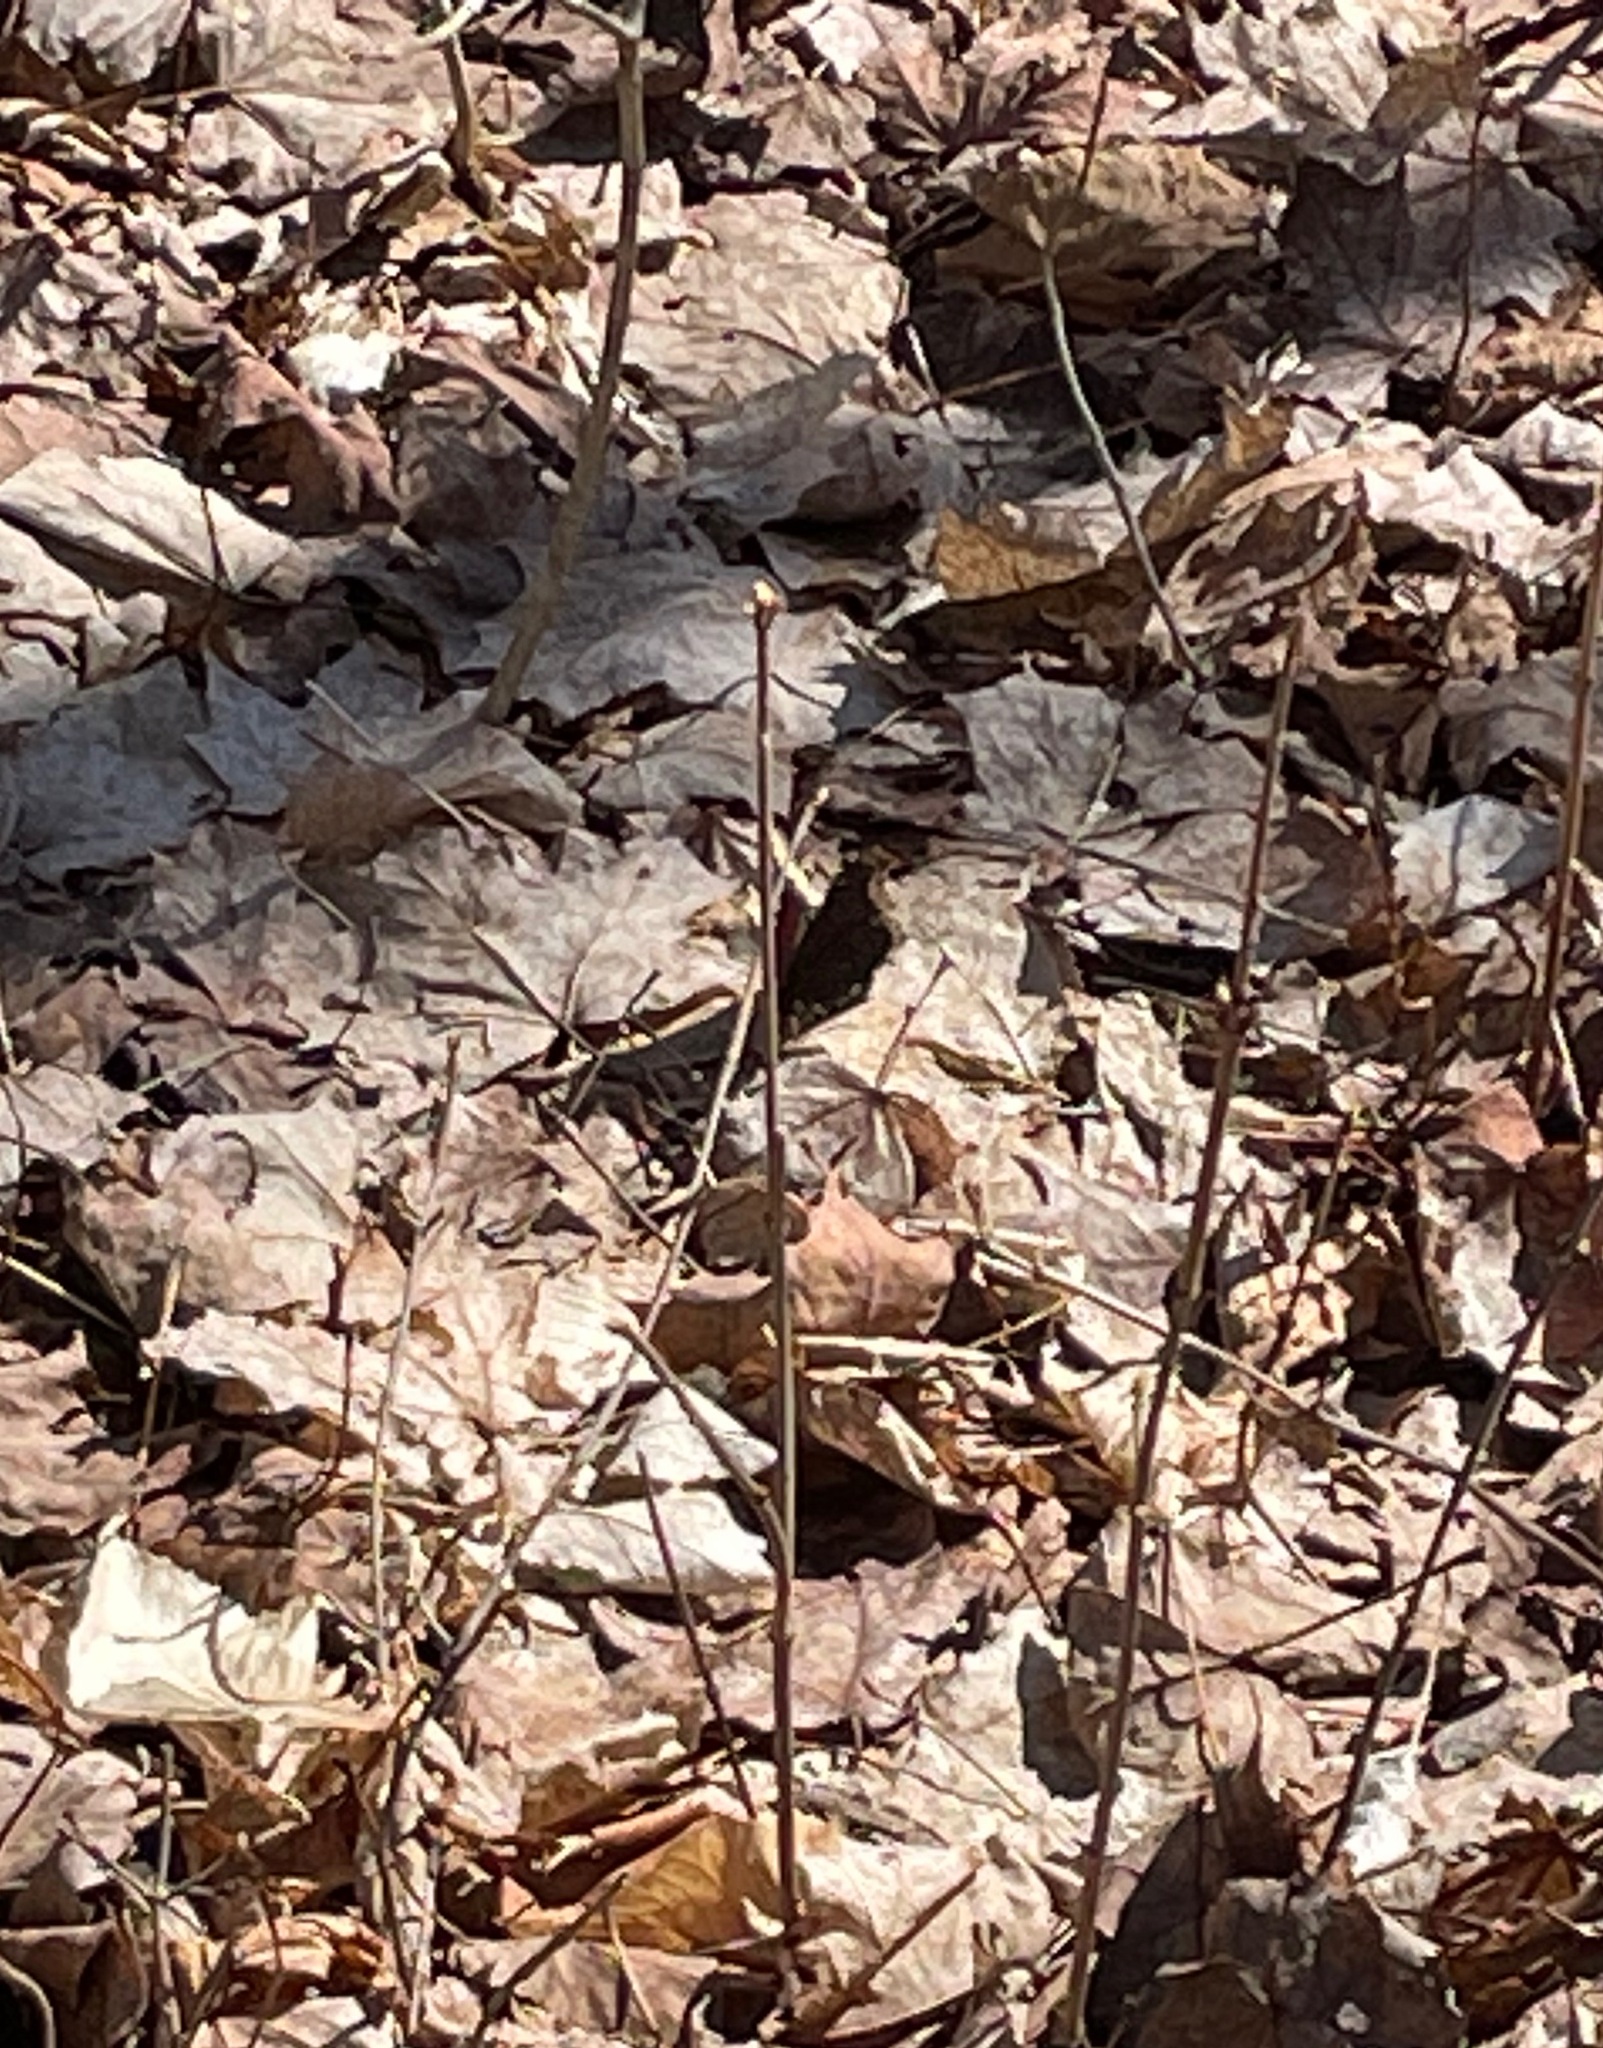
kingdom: Animalia
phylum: Arthropoda
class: Insecta
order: Lepidoptera
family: Nymphalidae
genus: Nymphalis
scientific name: Nymphalis antiopa
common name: Camberwell beauty
